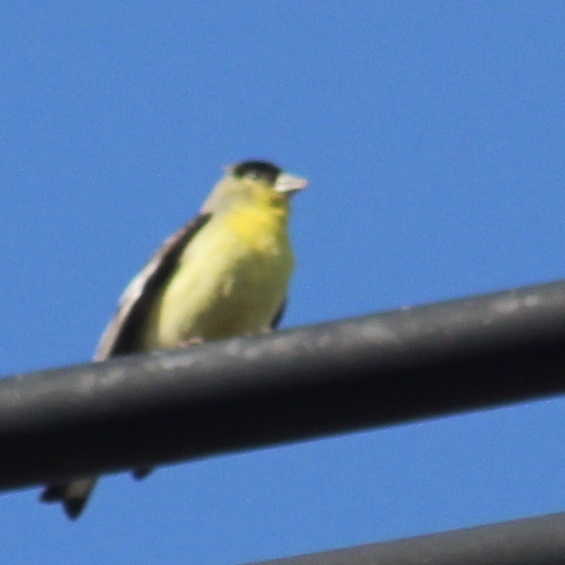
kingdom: Animalia
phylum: Chordata
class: Aves
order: Passeriformes
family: Fringillidae
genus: Spinus
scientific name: Spinus psaltria
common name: Lesser goldfinch
